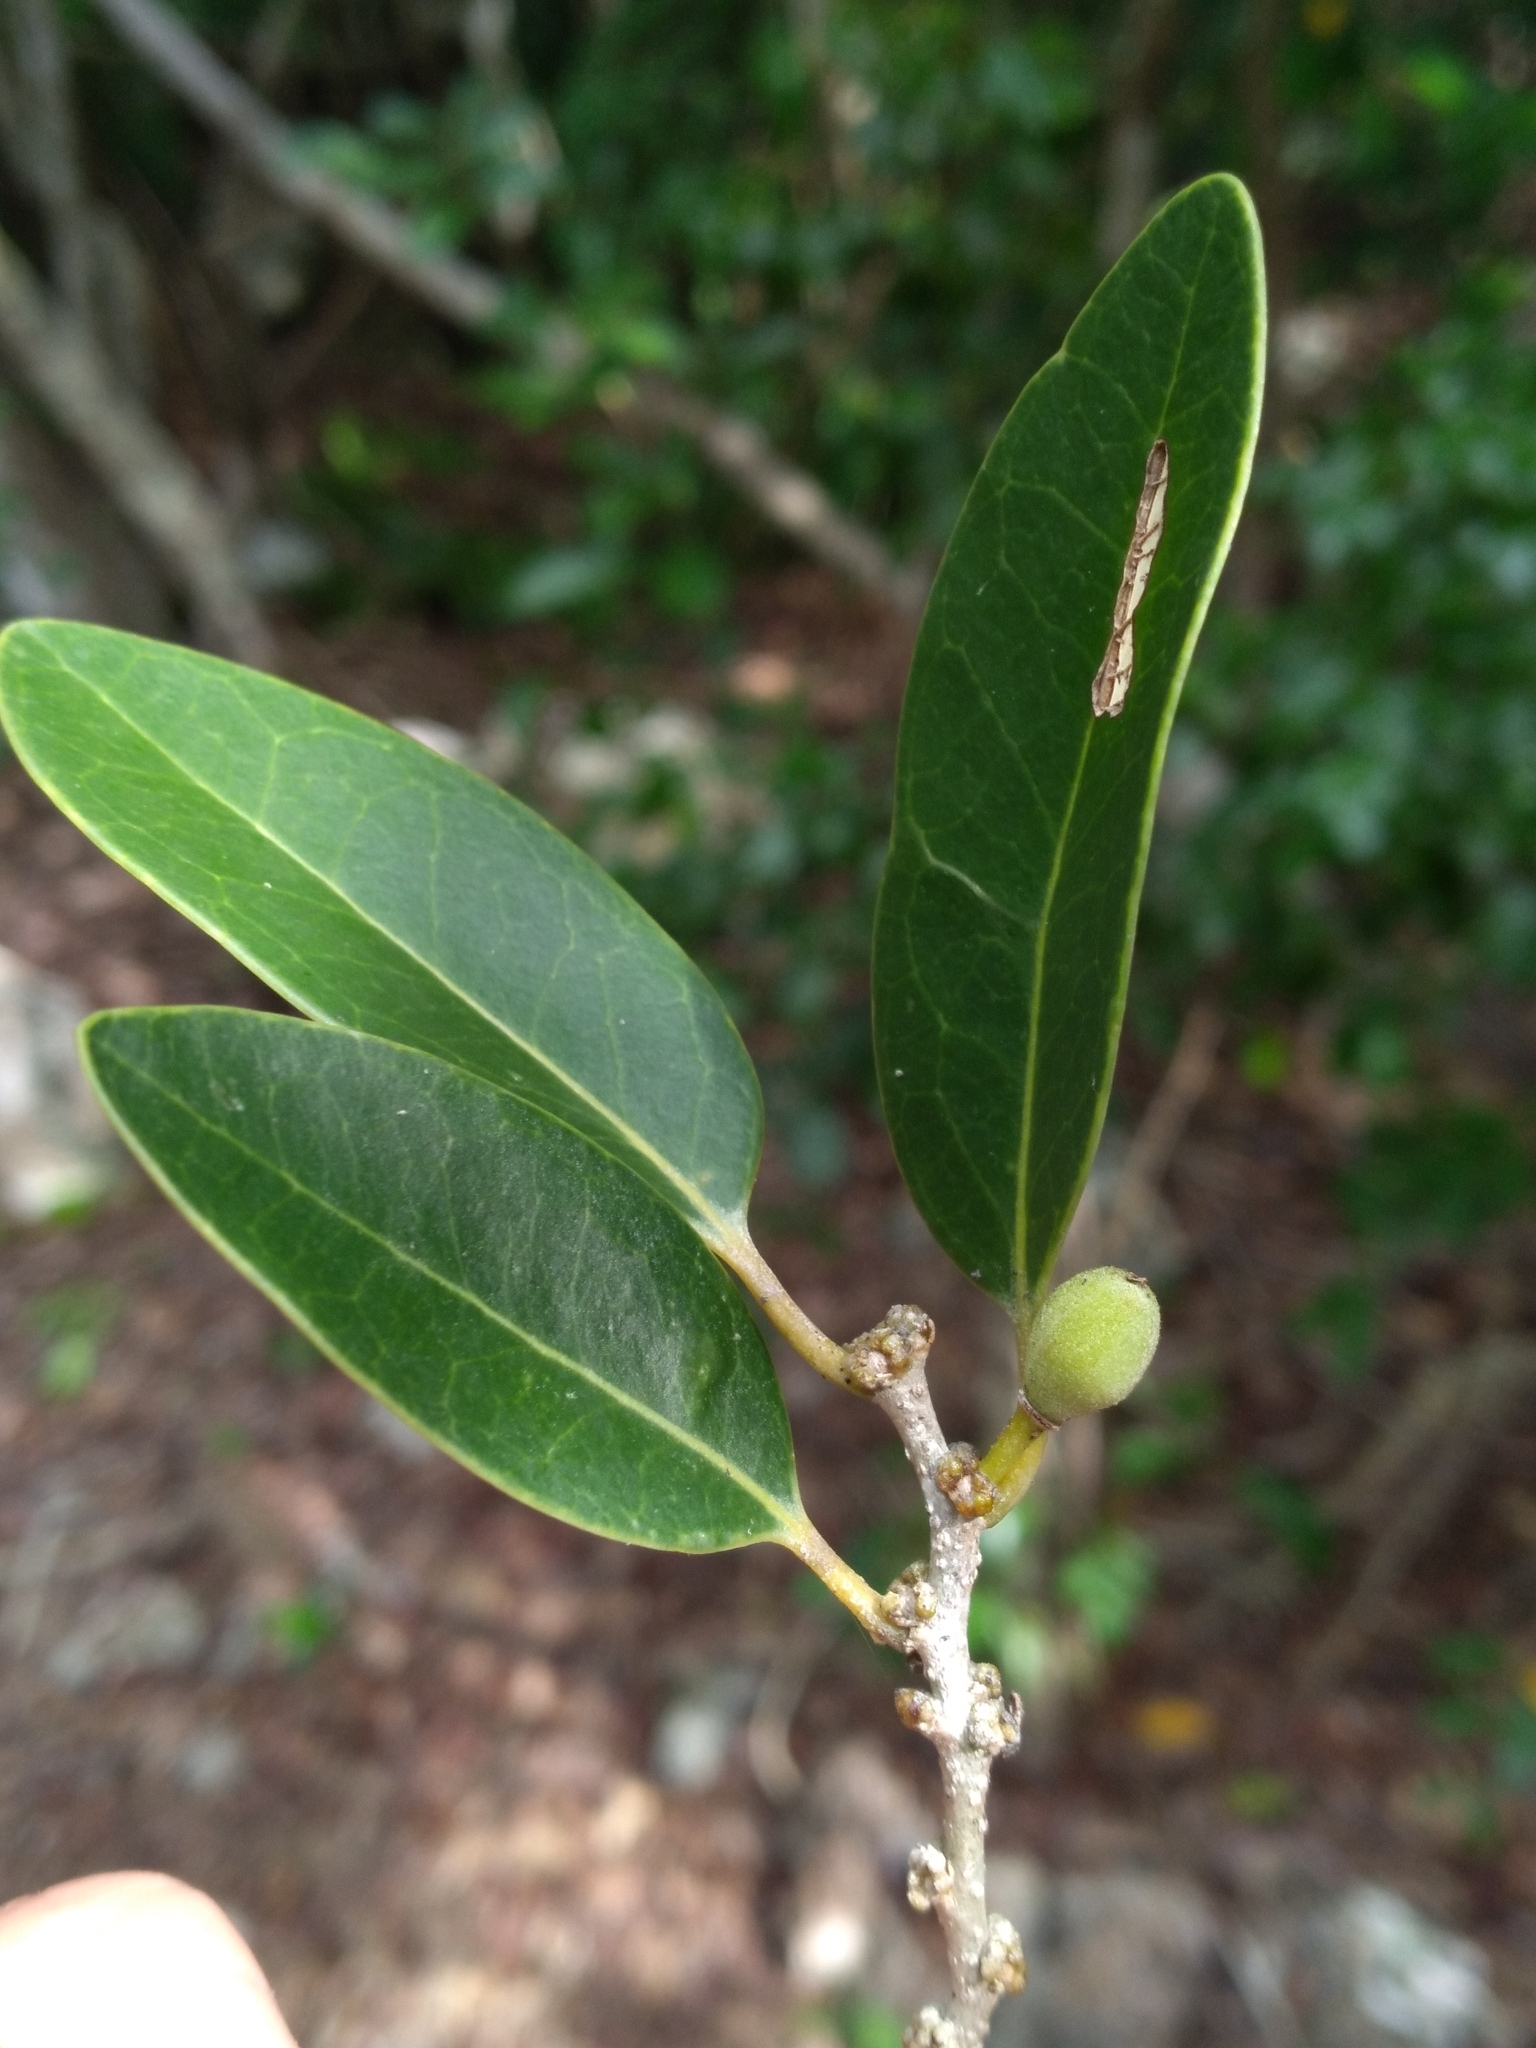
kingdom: Plantae
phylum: Tracheophyta
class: Magnoliopsida
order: Malpighiales
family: Putranjivaceae
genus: Drypetes
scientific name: Drypetes diversifolia
